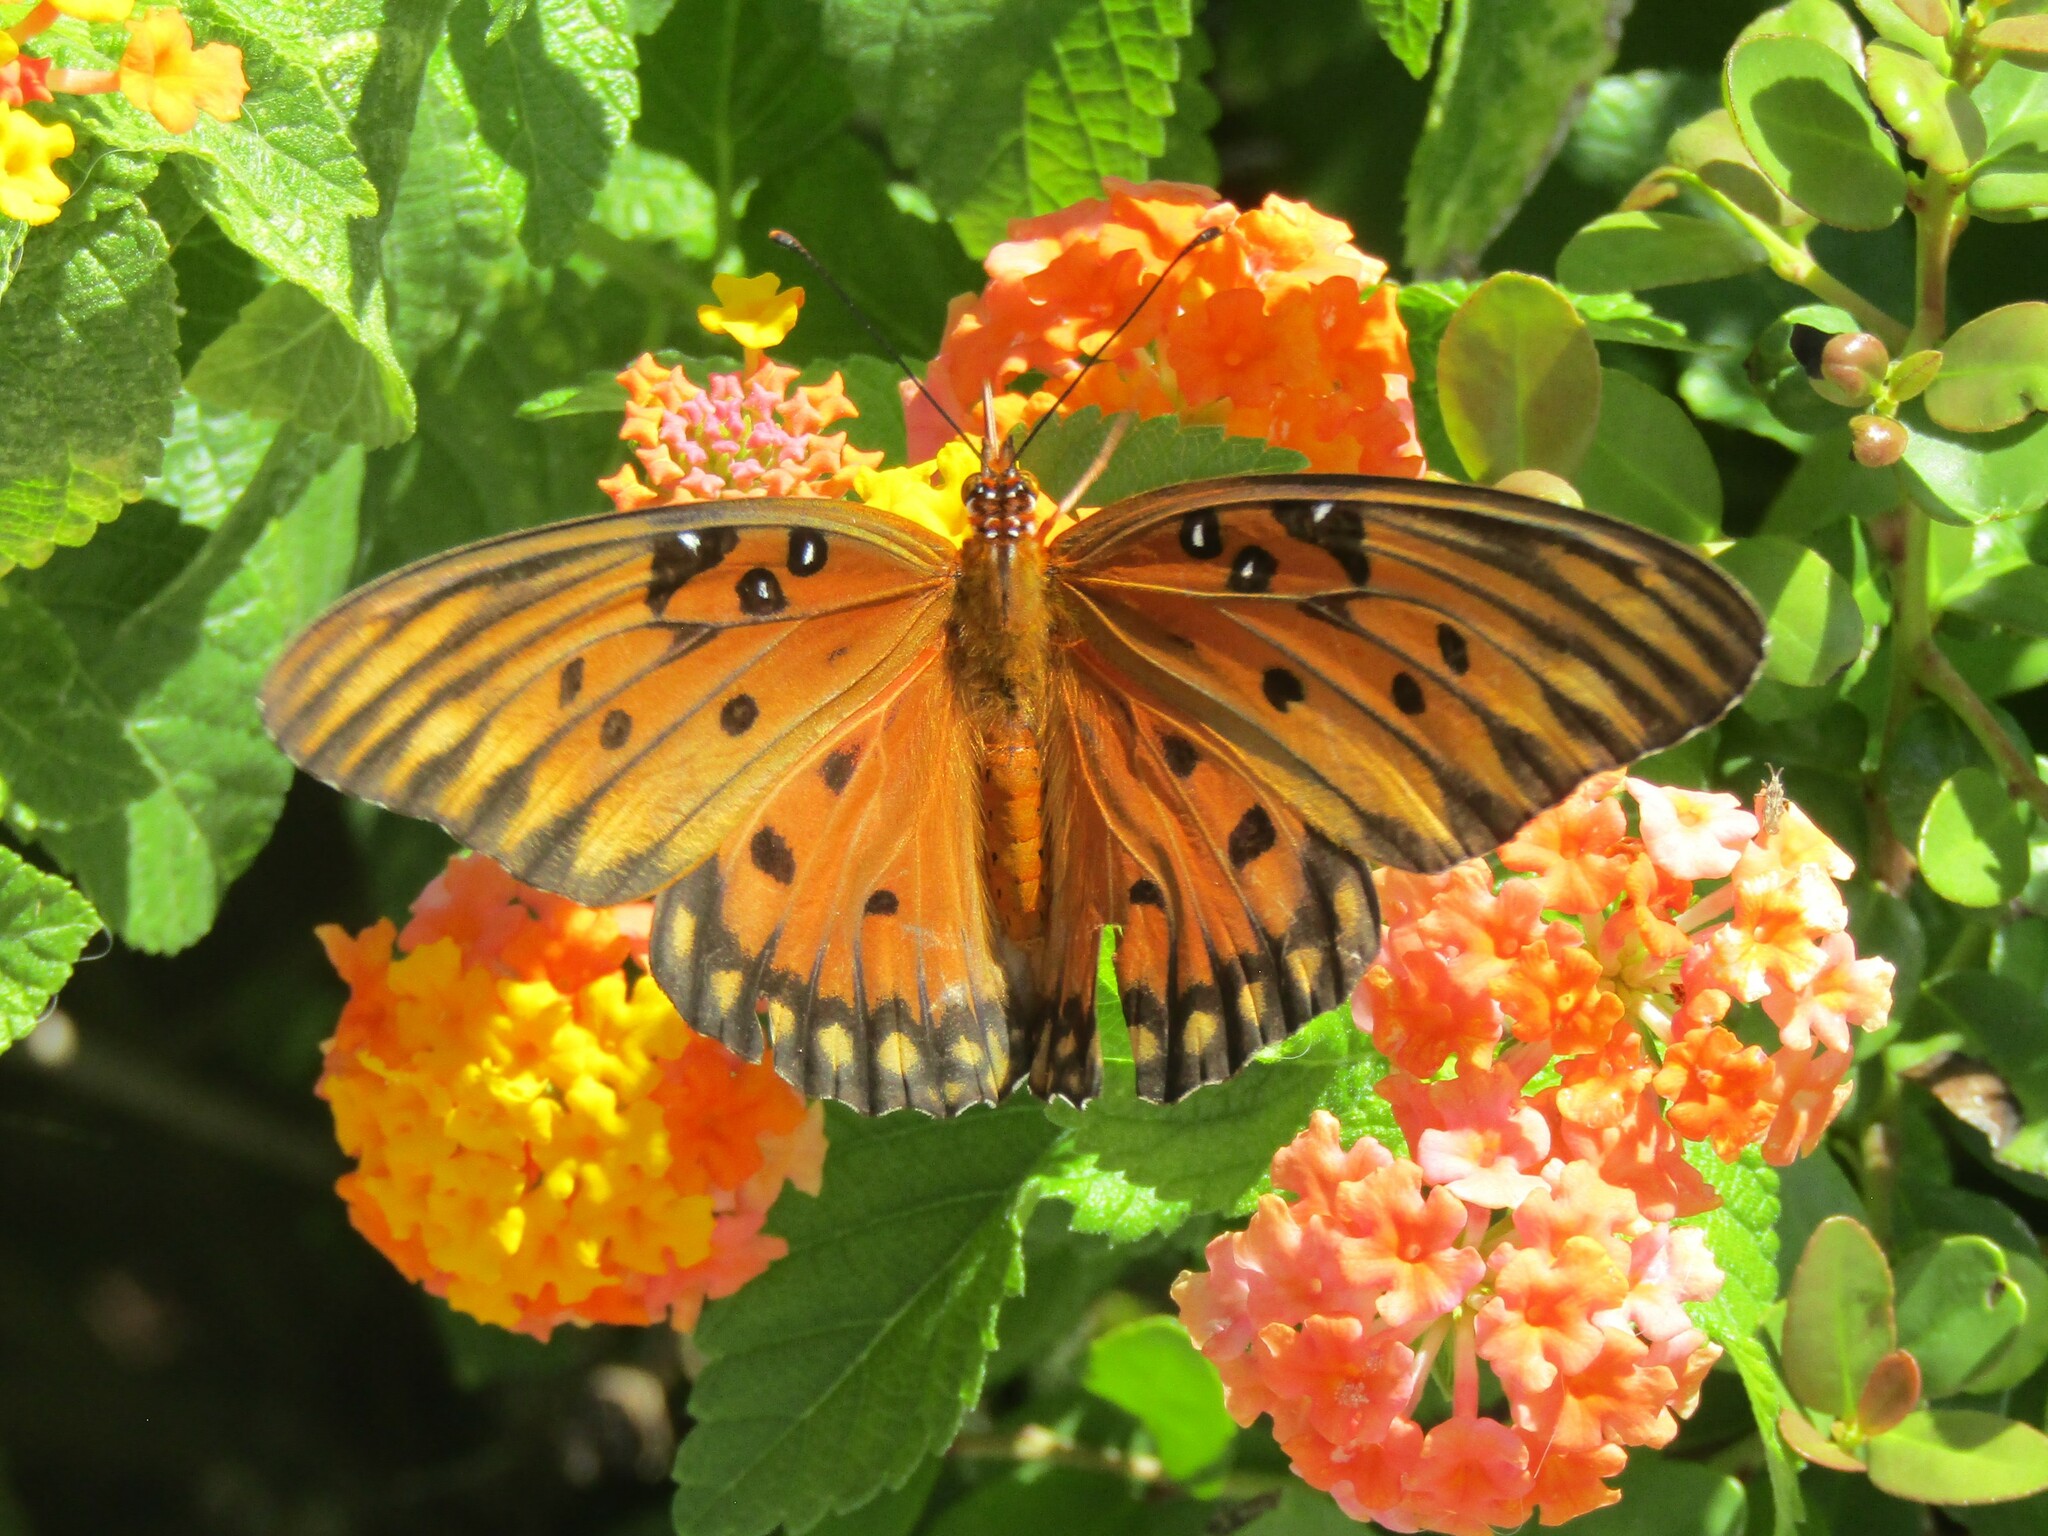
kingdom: Animalia
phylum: Arthropoda
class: Insecta
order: Lepidoptera
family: Nymphalidae
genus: Dione
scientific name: Dione vanillae
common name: Gulf fritillary
